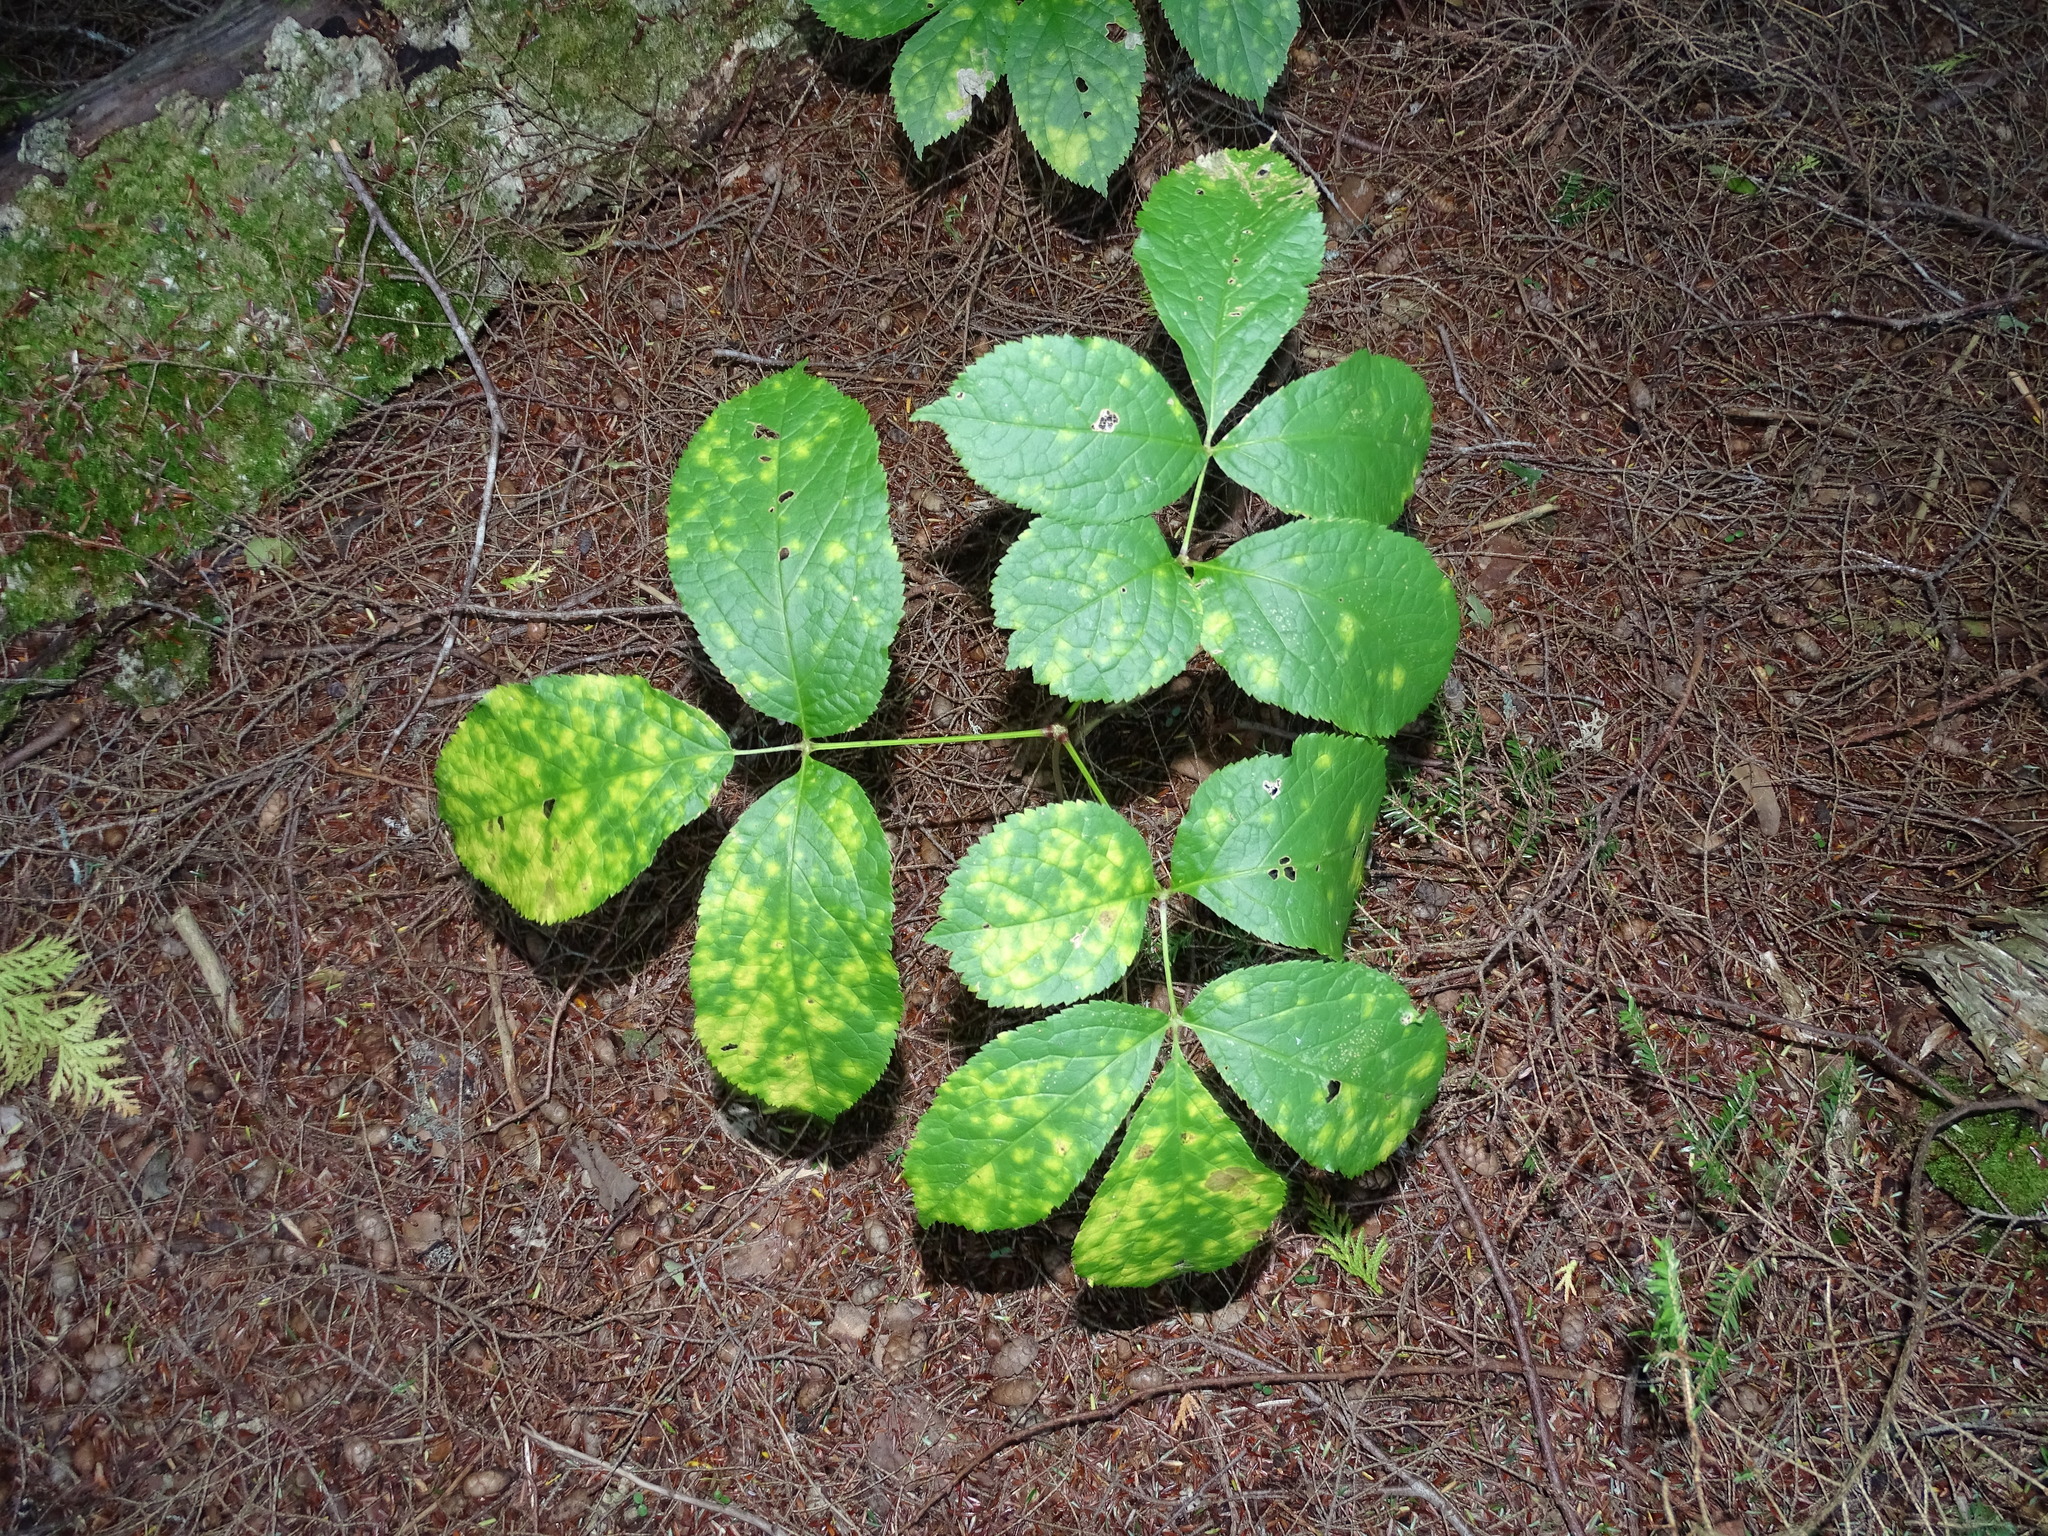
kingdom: Plantae
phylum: Tracheophyta
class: Magnoliopsida
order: Apiales
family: Araliaceae
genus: Aralia
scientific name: Aralia nudicaulis
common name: Wild sarsaparilla
